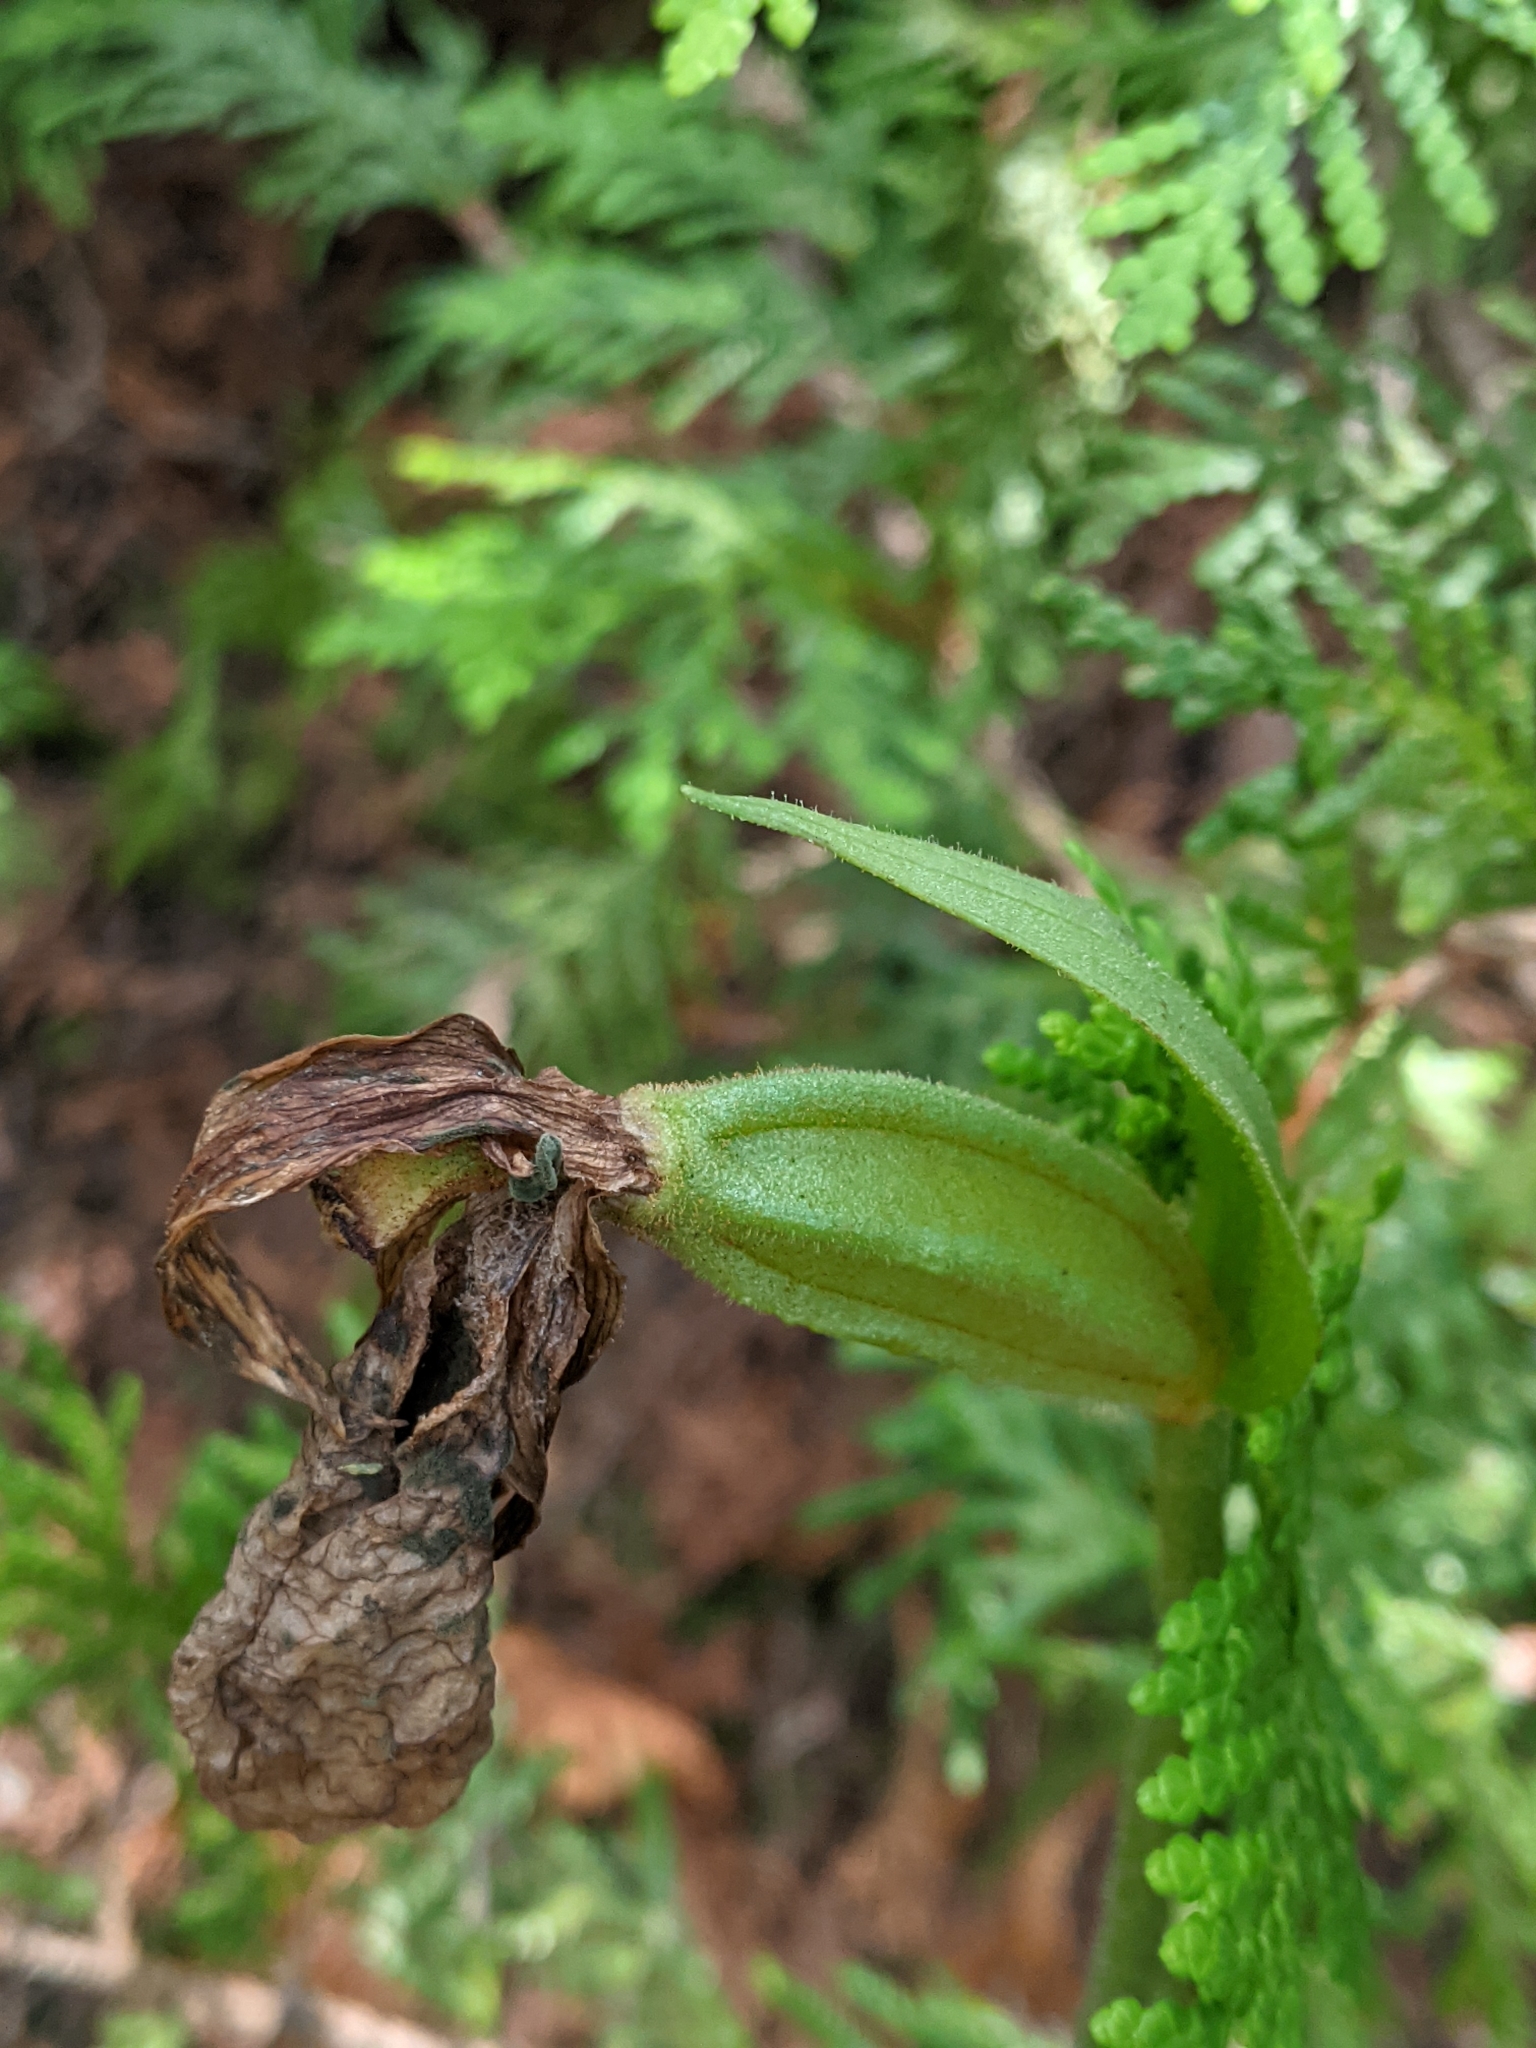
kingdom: Plantae
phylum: Tracheophyta
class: Liliopsida
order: Asparagales
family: Orchidaceae
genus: Cypripedium
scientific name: Cypripedium acaule
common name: Pink lady's-slipper
